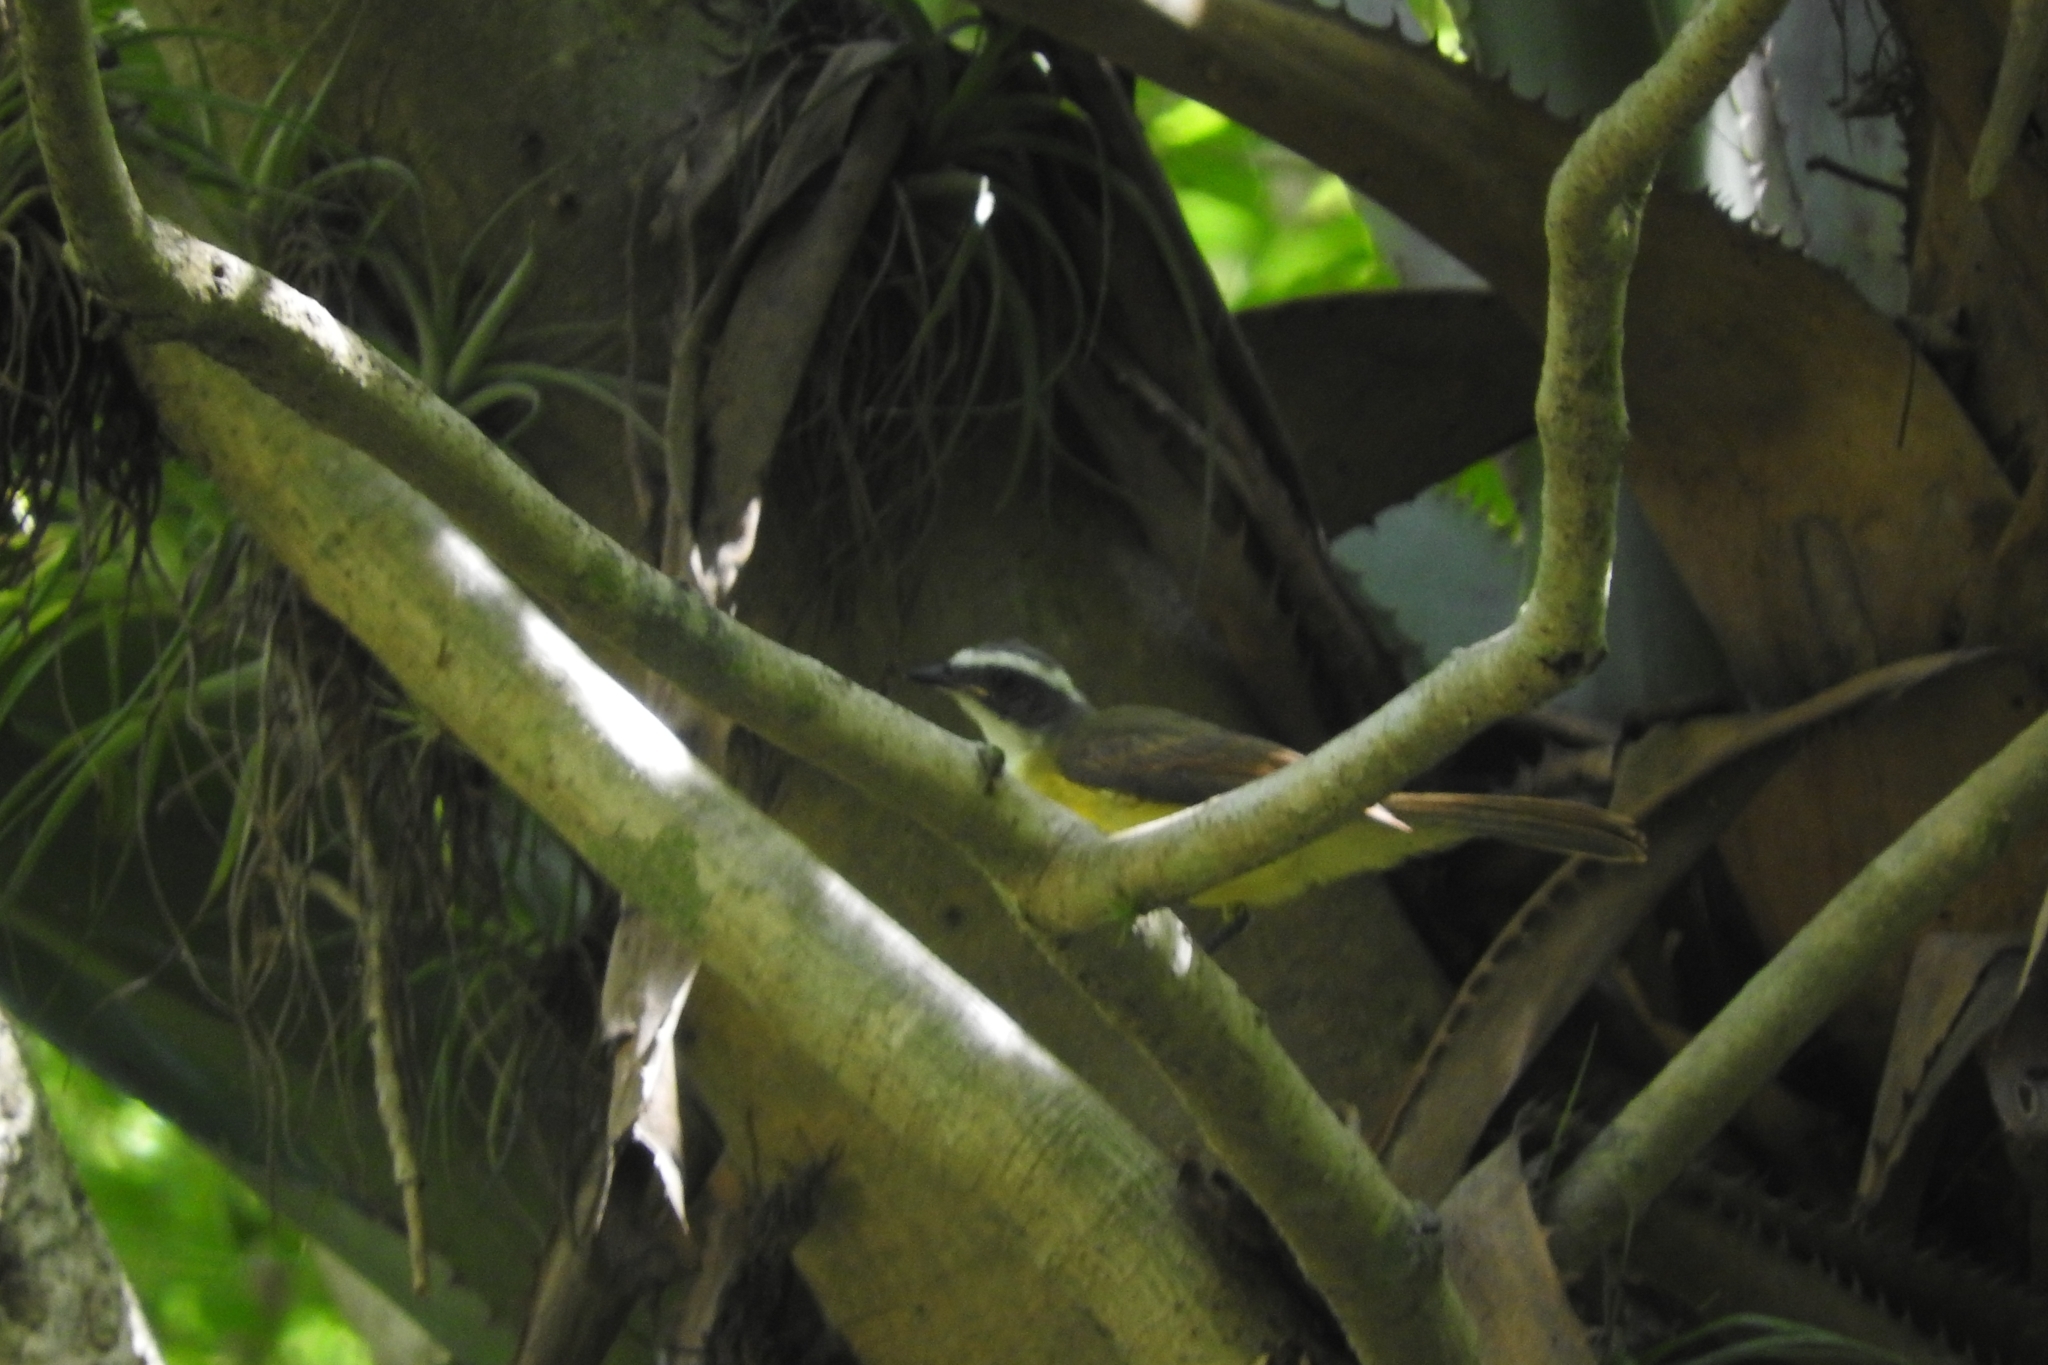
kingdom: Animalia
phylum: Chordata
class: Aves
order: Passeriformes
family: Tyrannidae
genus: Myiozetetes
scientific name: Myiozetetes similis
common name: Social flycatcher
